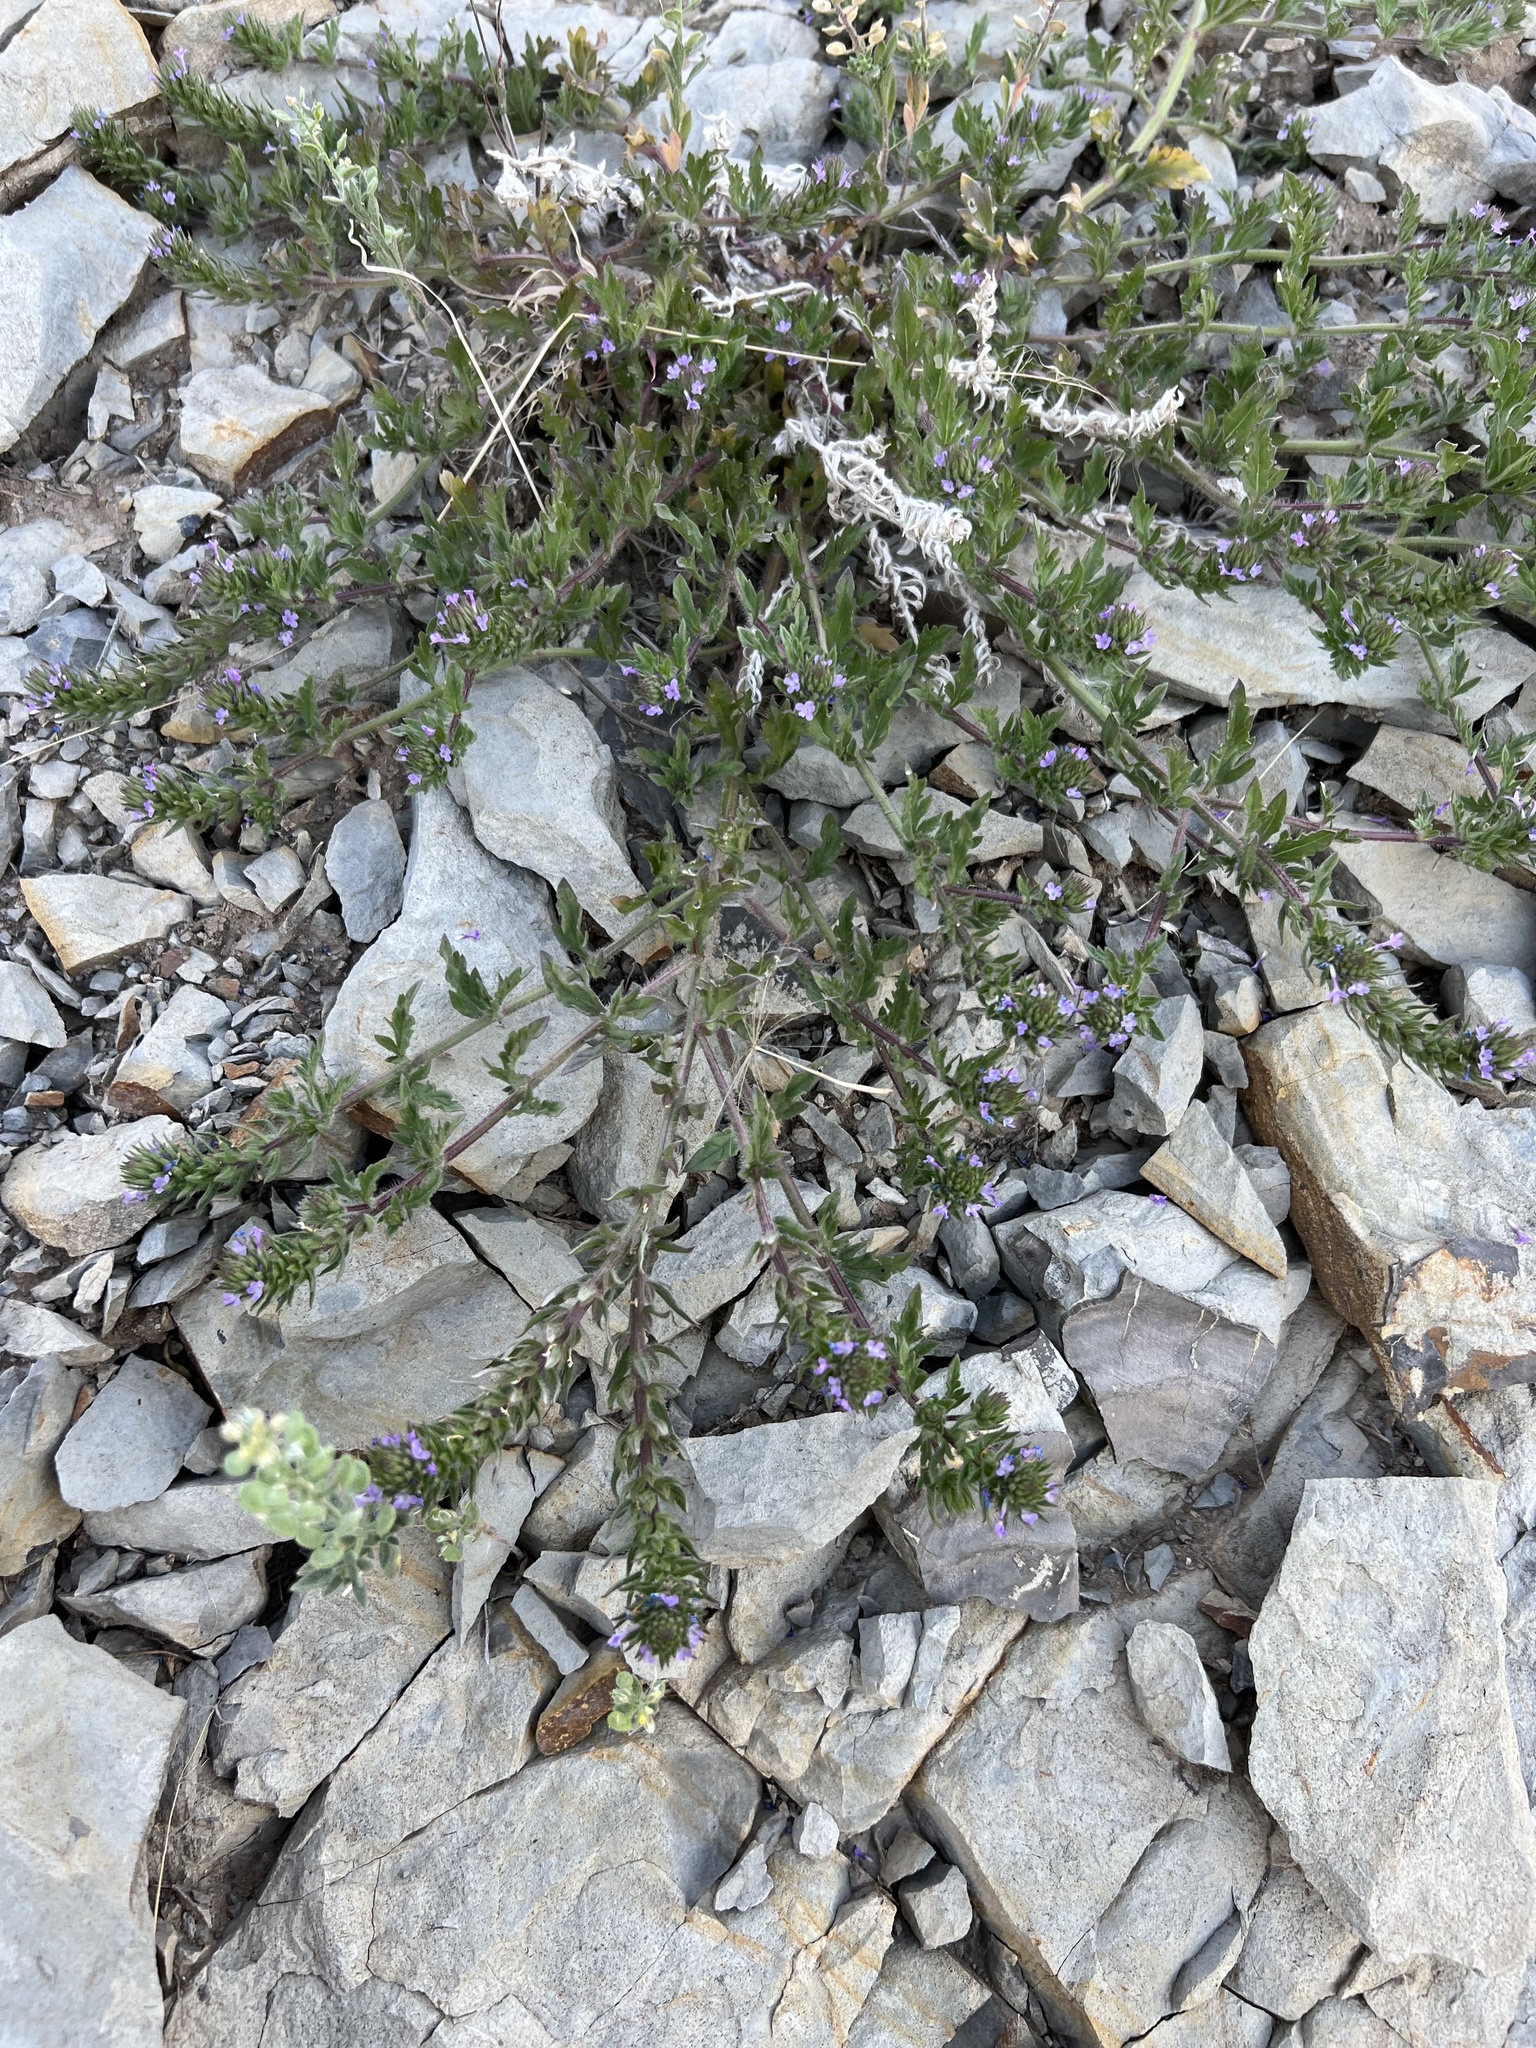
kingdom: Plantae
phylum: Tracheophyta
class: Magnoliopsida
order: Lamiales
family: Verbenaceae
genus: Verbena
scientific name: Verbena bracteata
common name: Bracted vervain
